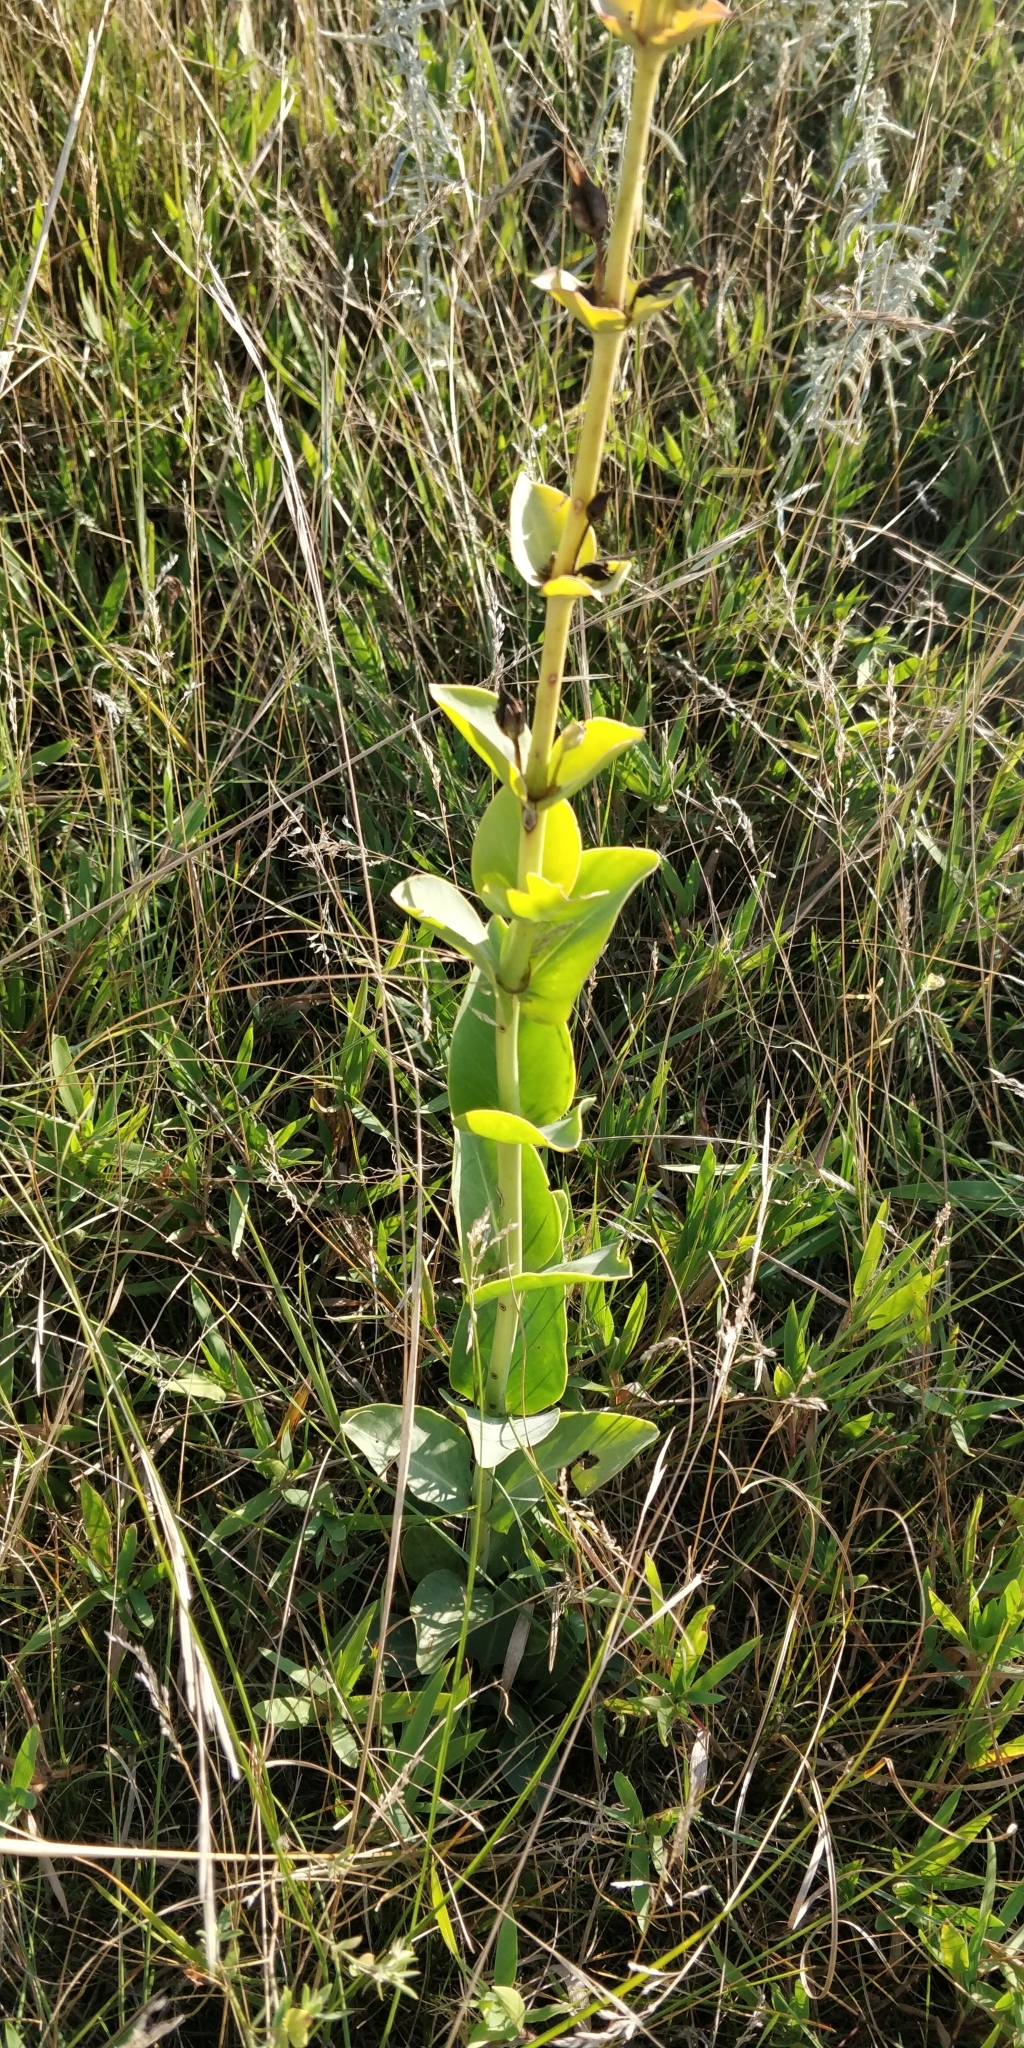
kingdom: Plantae
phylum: Tracheophyta
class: Magnoliopsida
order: Lamiales
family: Plantaginaceae
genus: Penstemon
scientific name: Penstemon
